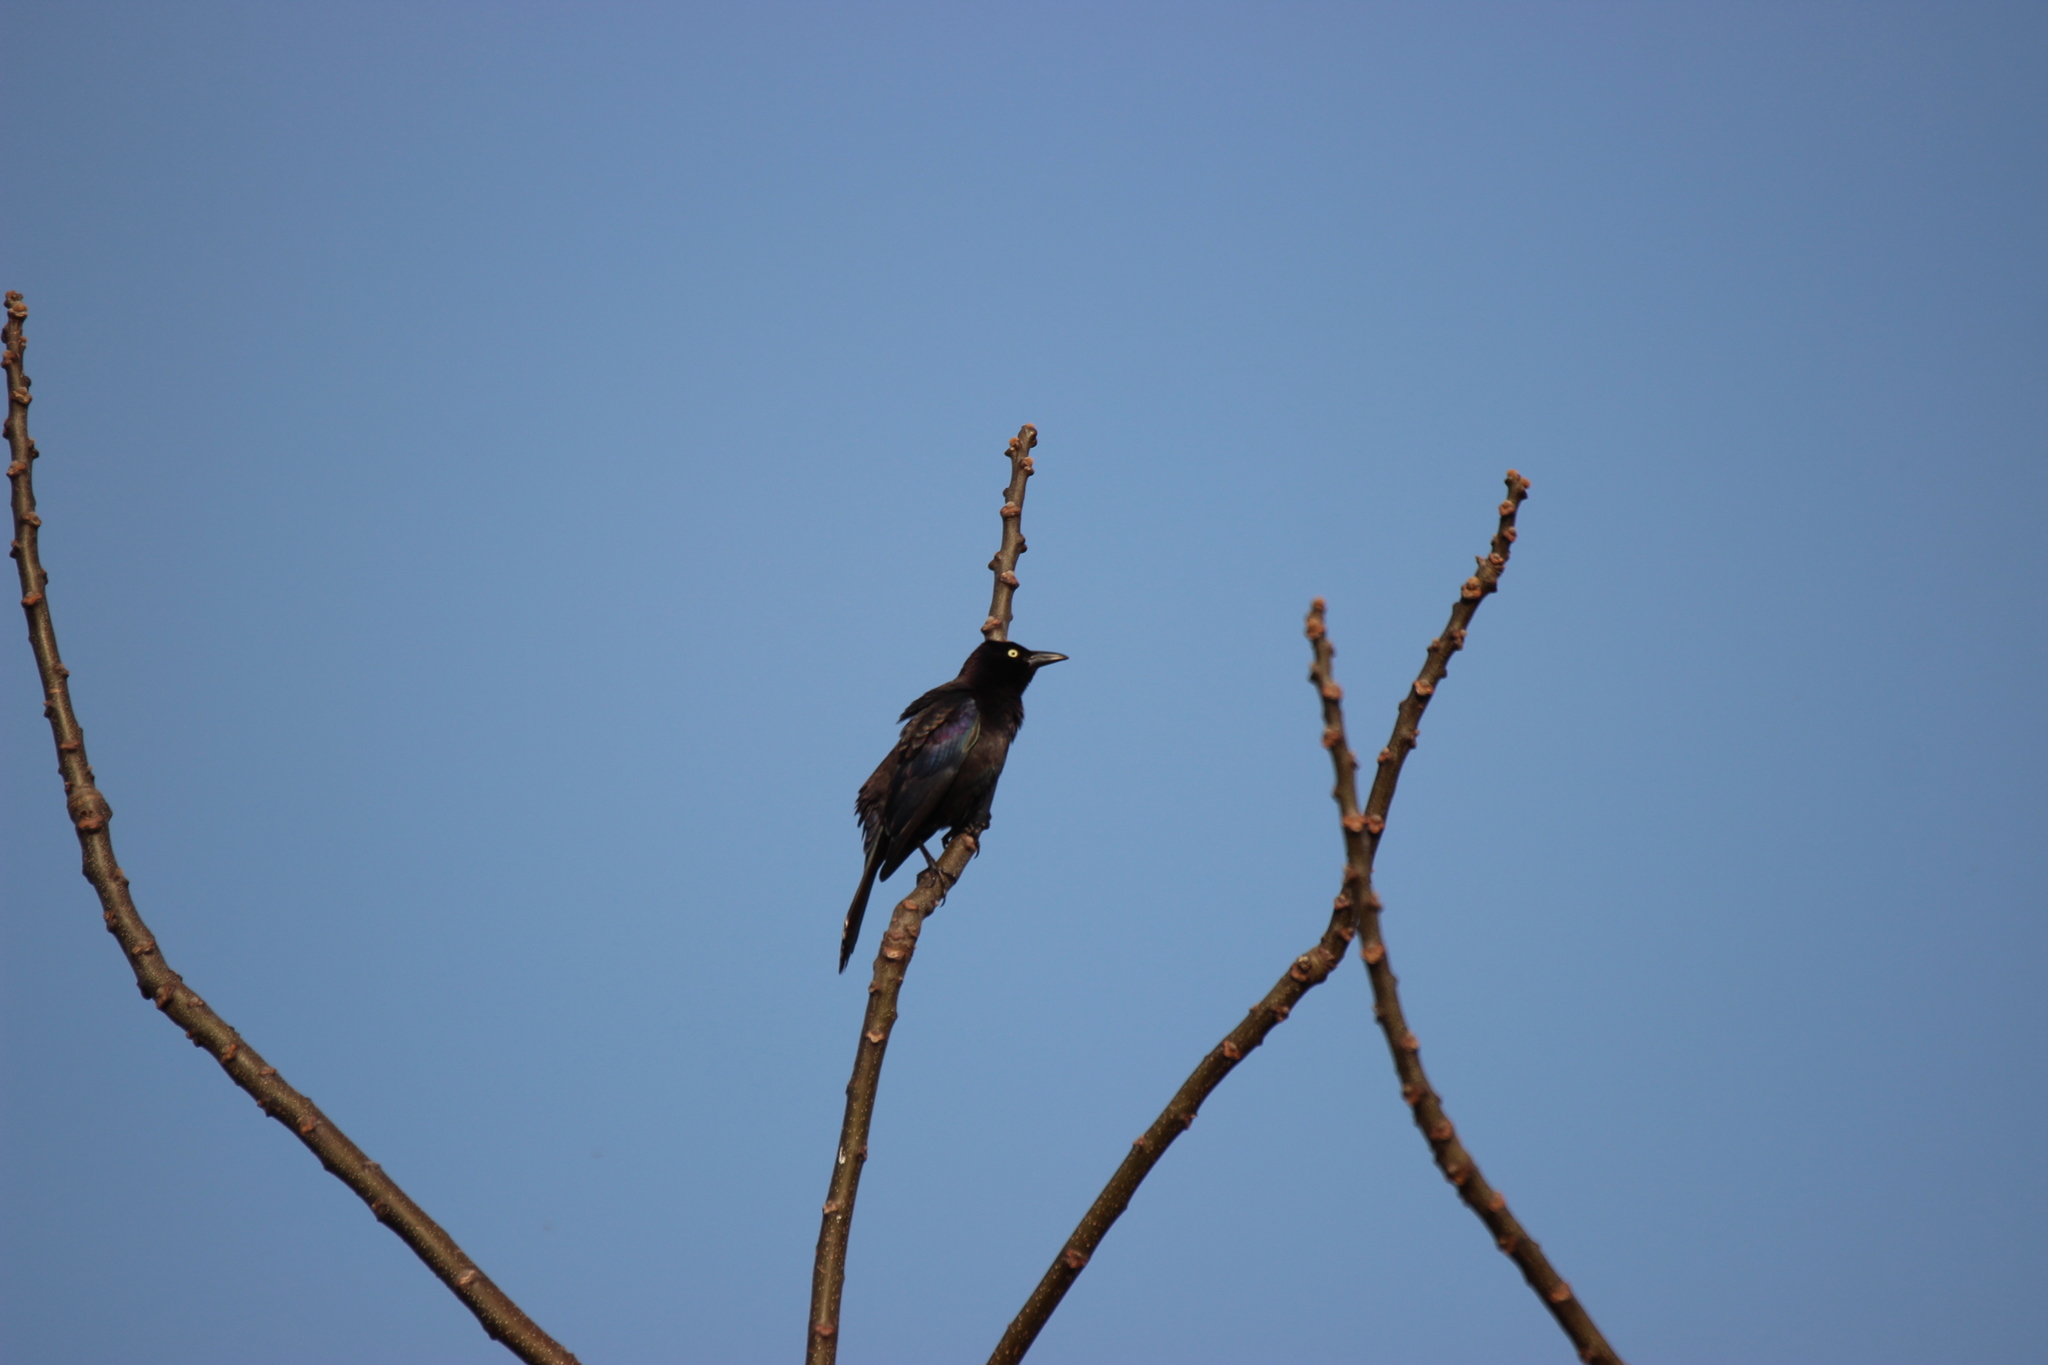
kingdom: Animalia
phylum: Chordata
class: Aves
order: Passeriformes
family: Icteridae
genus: Quiscalus
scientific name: Quiscalus quiscula
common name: Common grackle
